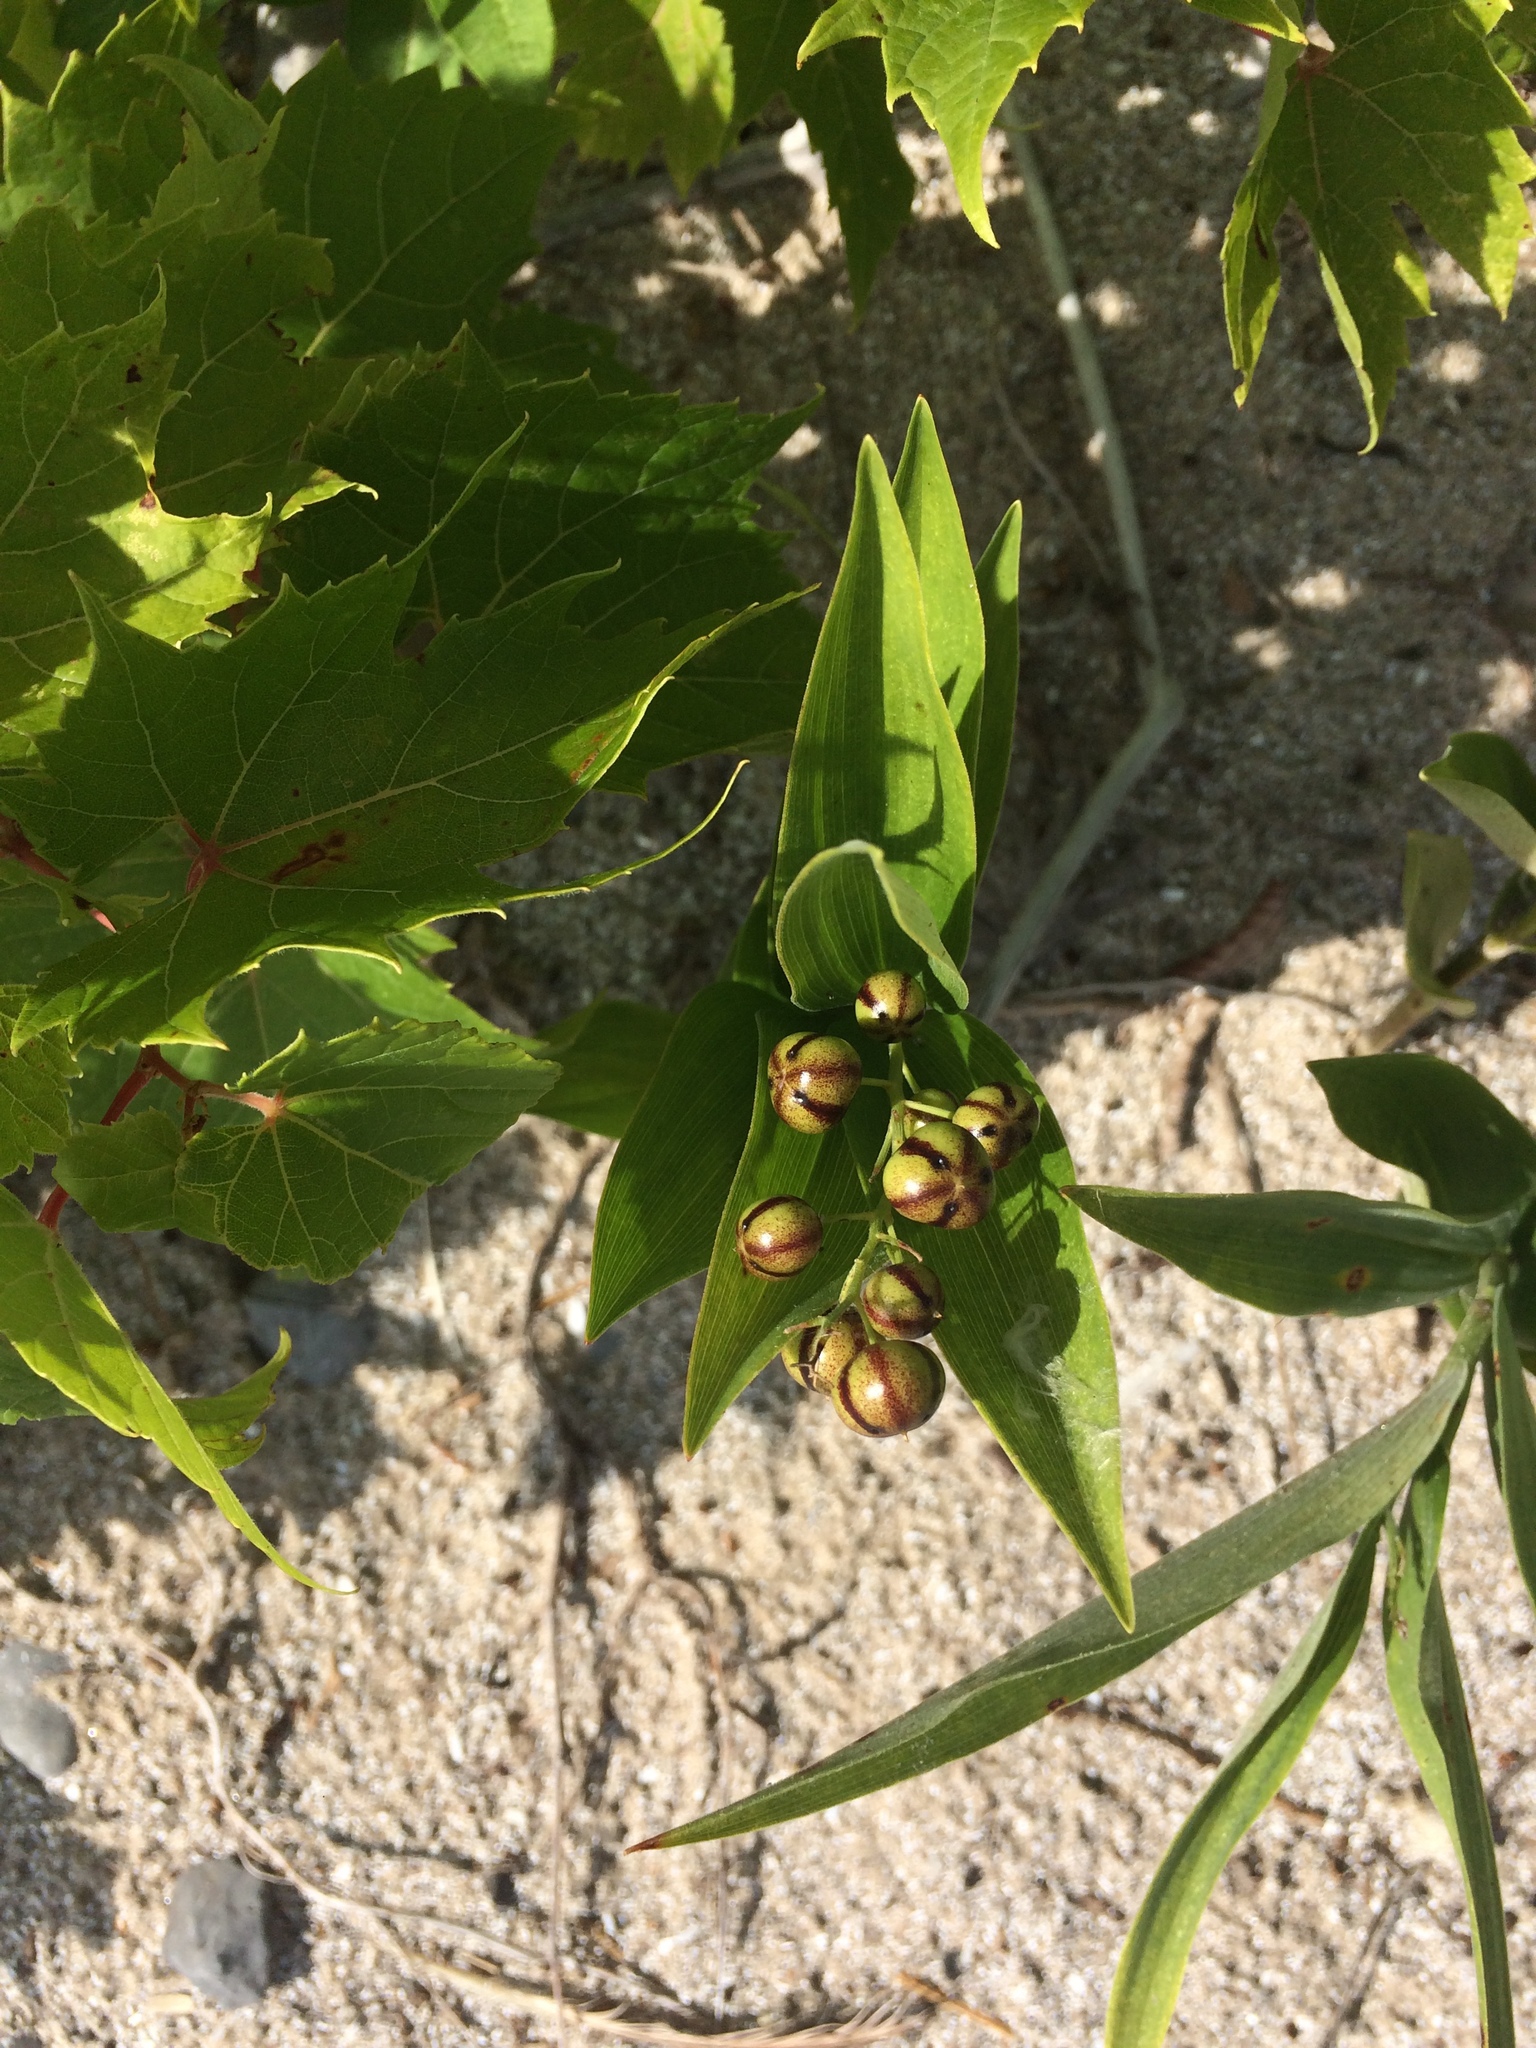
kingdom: Plantae
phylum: Tracheophyta
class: Liliopsida
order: Asparagales
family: Asparagaceae
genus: Maianthemum
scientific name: Maianthemum stellatum
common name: Little false solomon's seal
